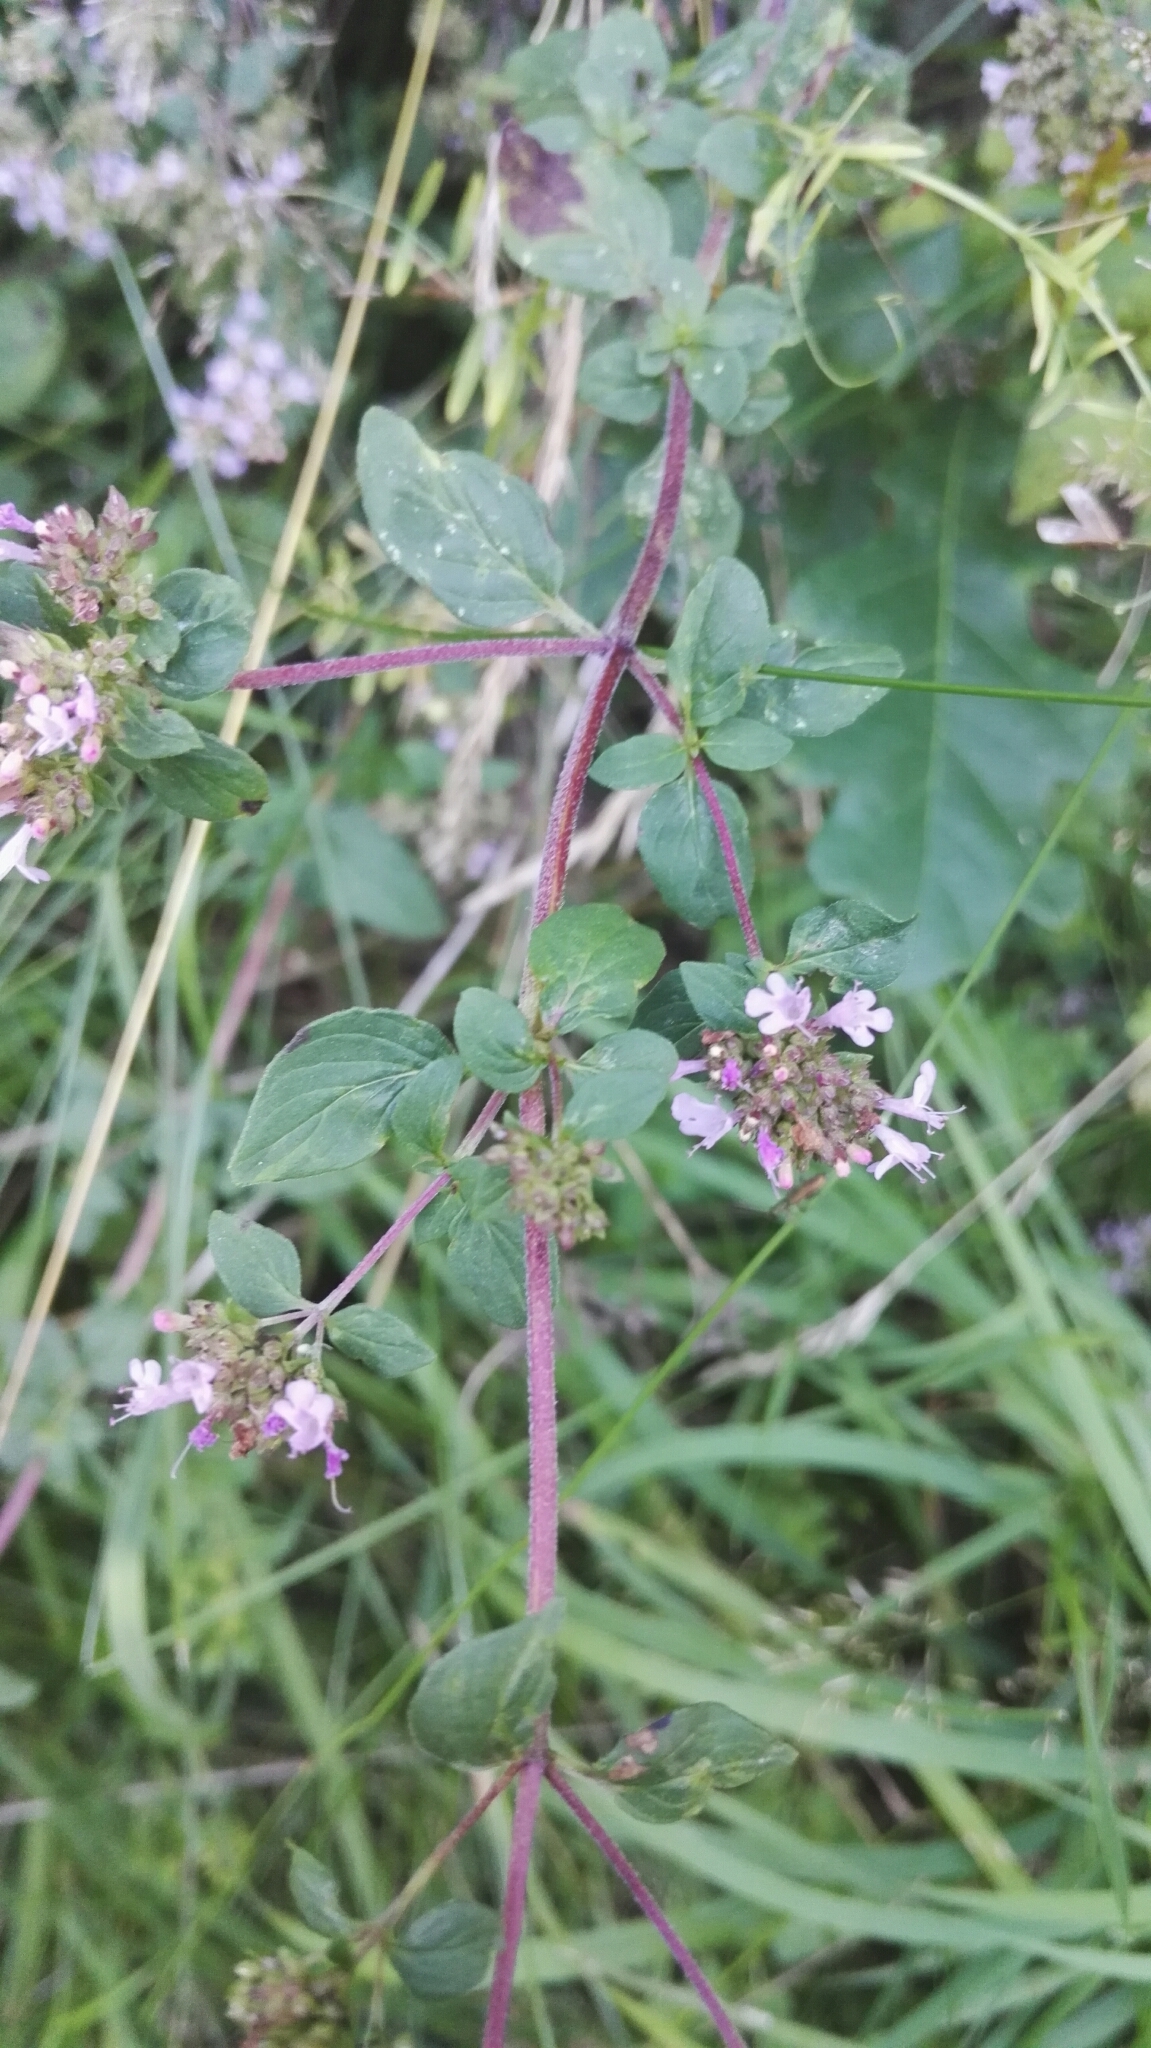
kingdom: Plantae
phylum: Tracheophyta
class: Magnoliopsida
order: Lamiales
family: Lamiaceae
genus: Origanum
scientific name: Origanum vulgare
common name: Wild marjoram
